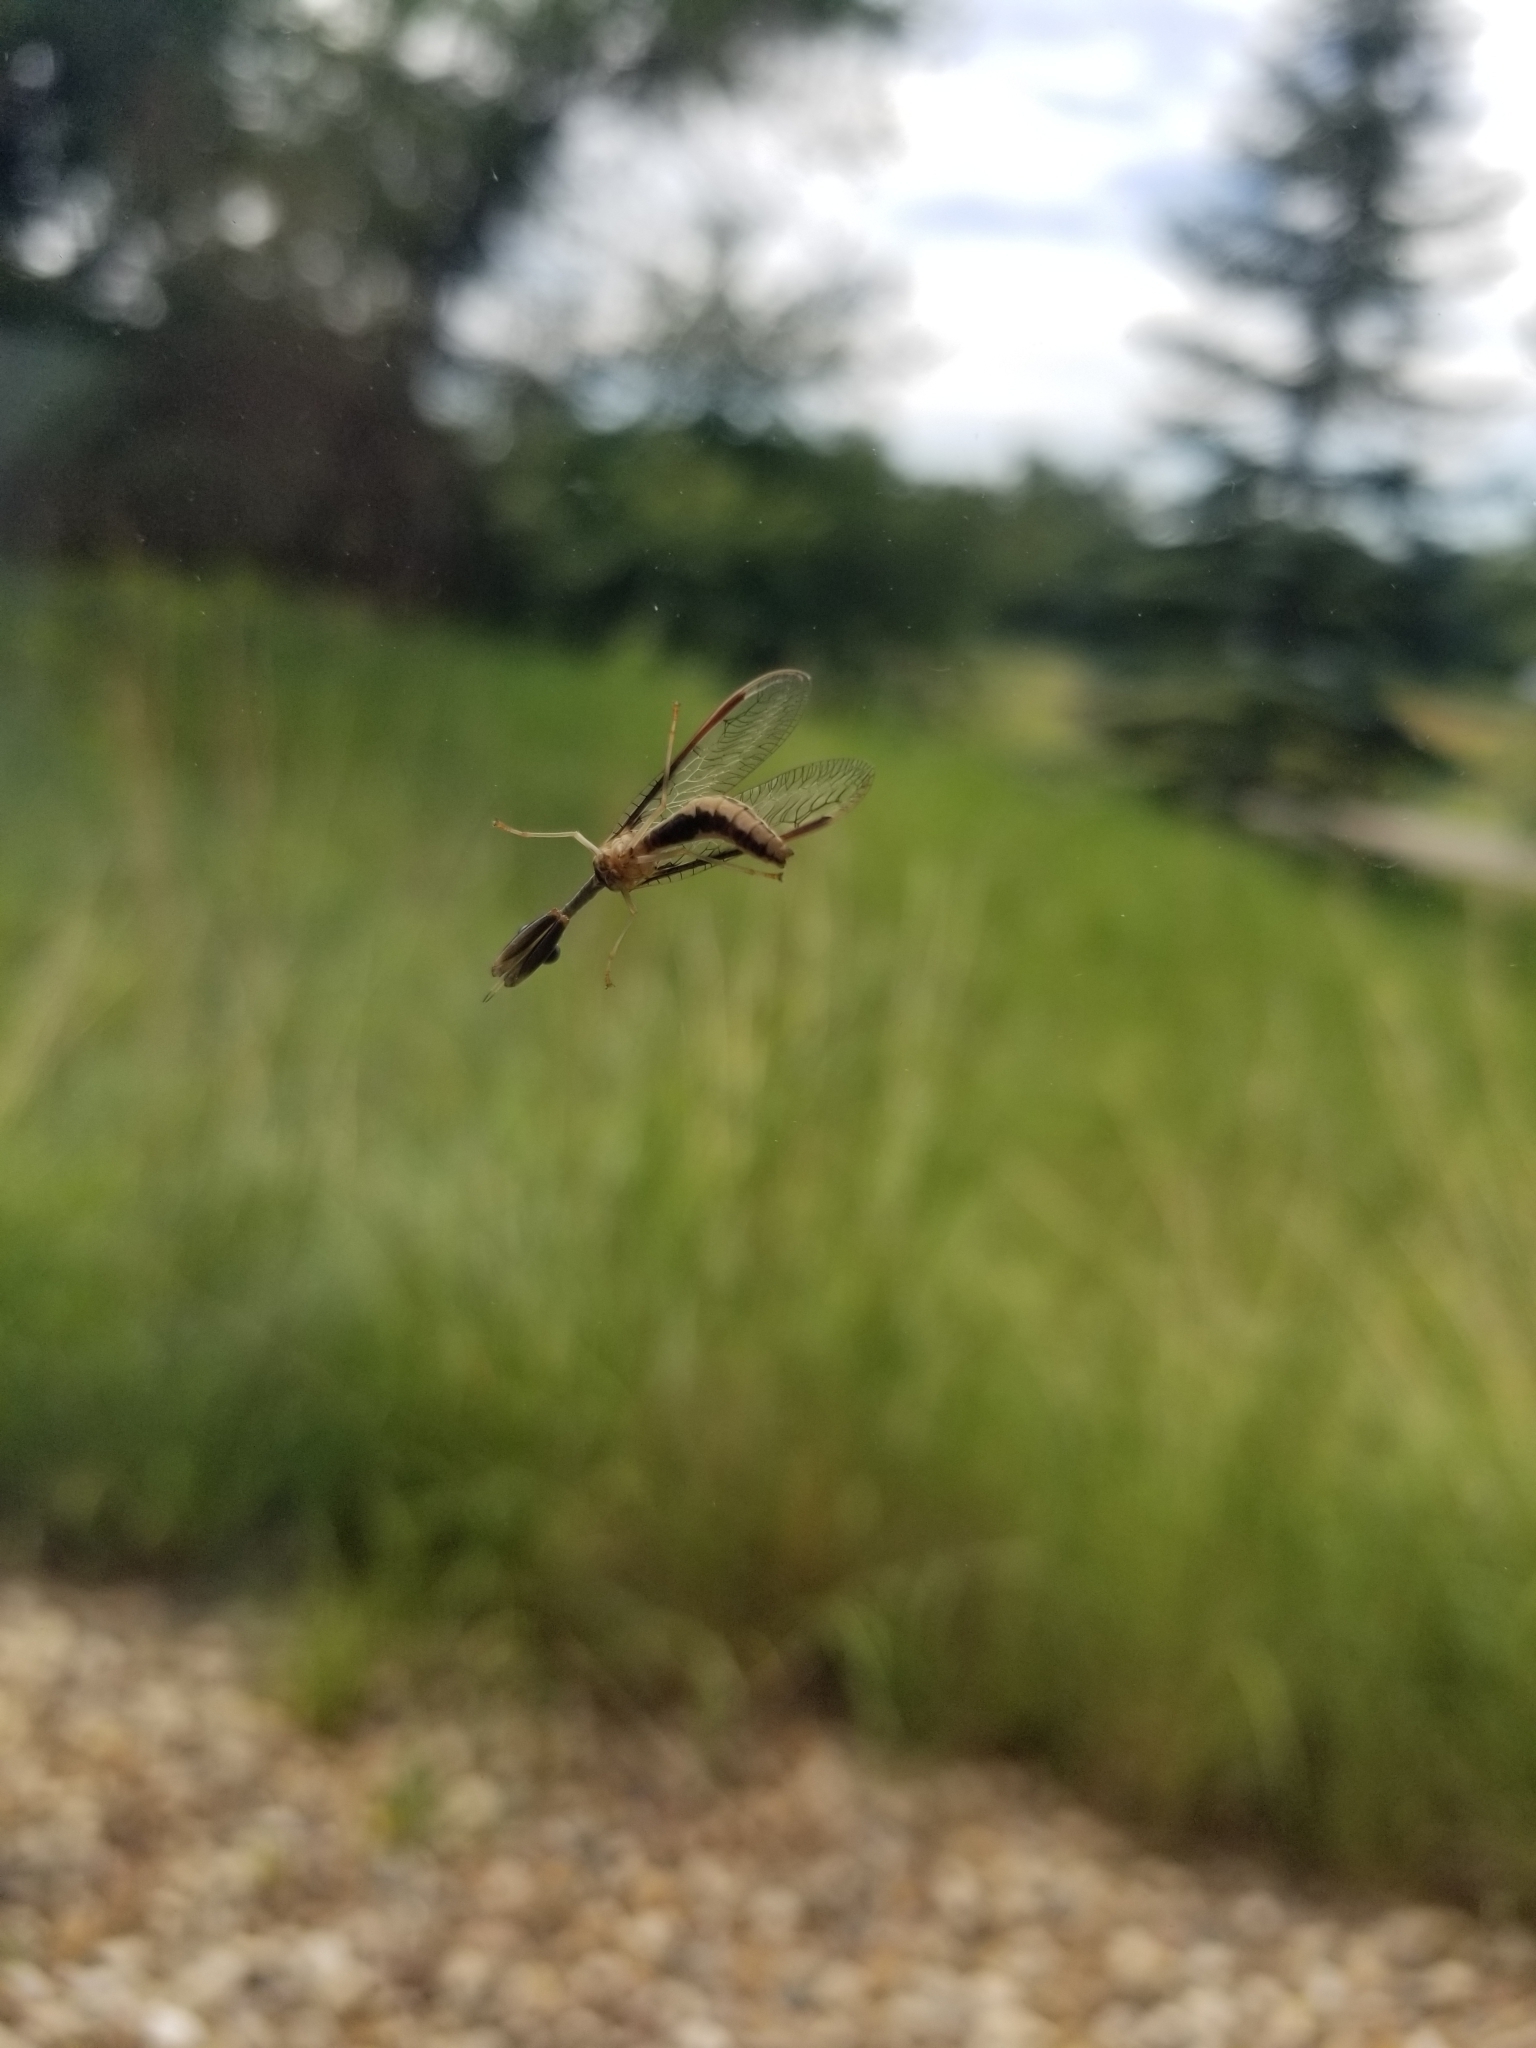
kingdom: Animalia
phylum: Arthropoda
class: Insecta
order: Neuroptera
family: Mantispidae
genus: Dicromantispa
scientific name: Dicromantispa sayi
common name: Say's mantidfly
